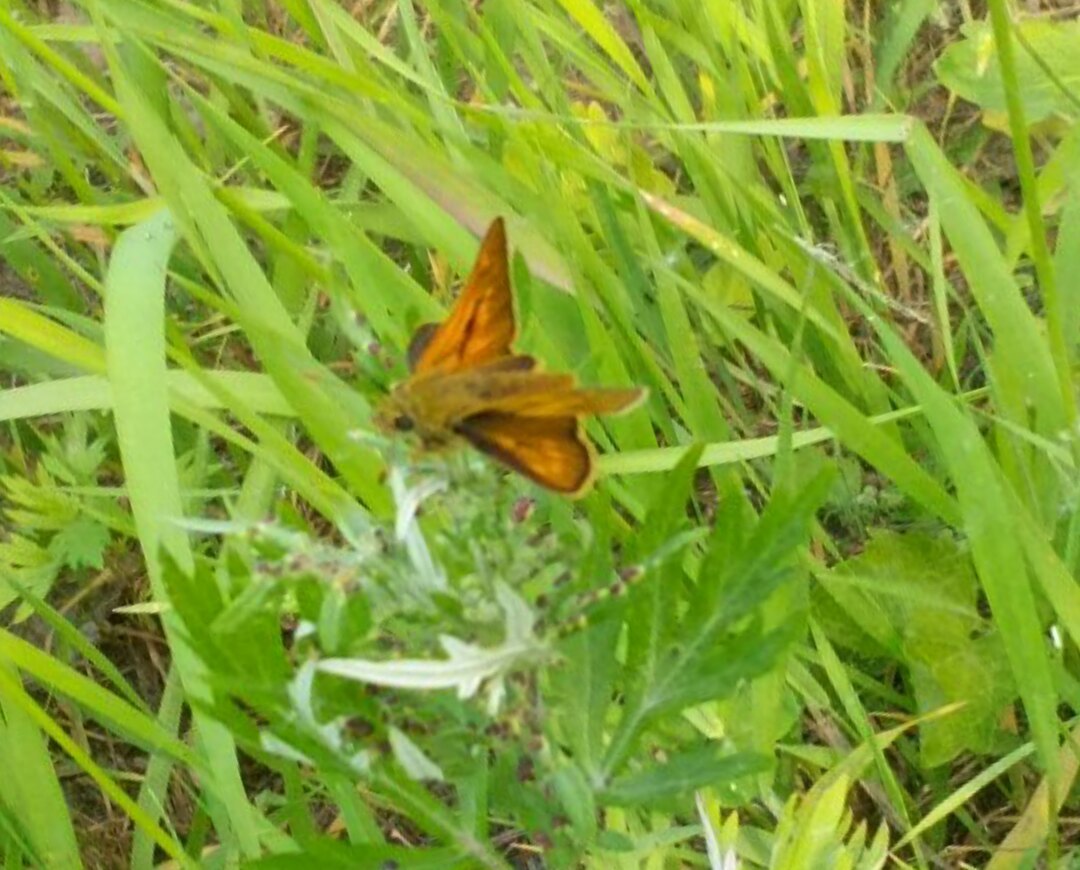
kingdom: Animalia
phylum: Arthropoda
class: Insecta
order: Lepidoptera
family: Hesperiidae
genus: Ochlodes
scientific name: Ochlodes venata
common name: Large skipper
